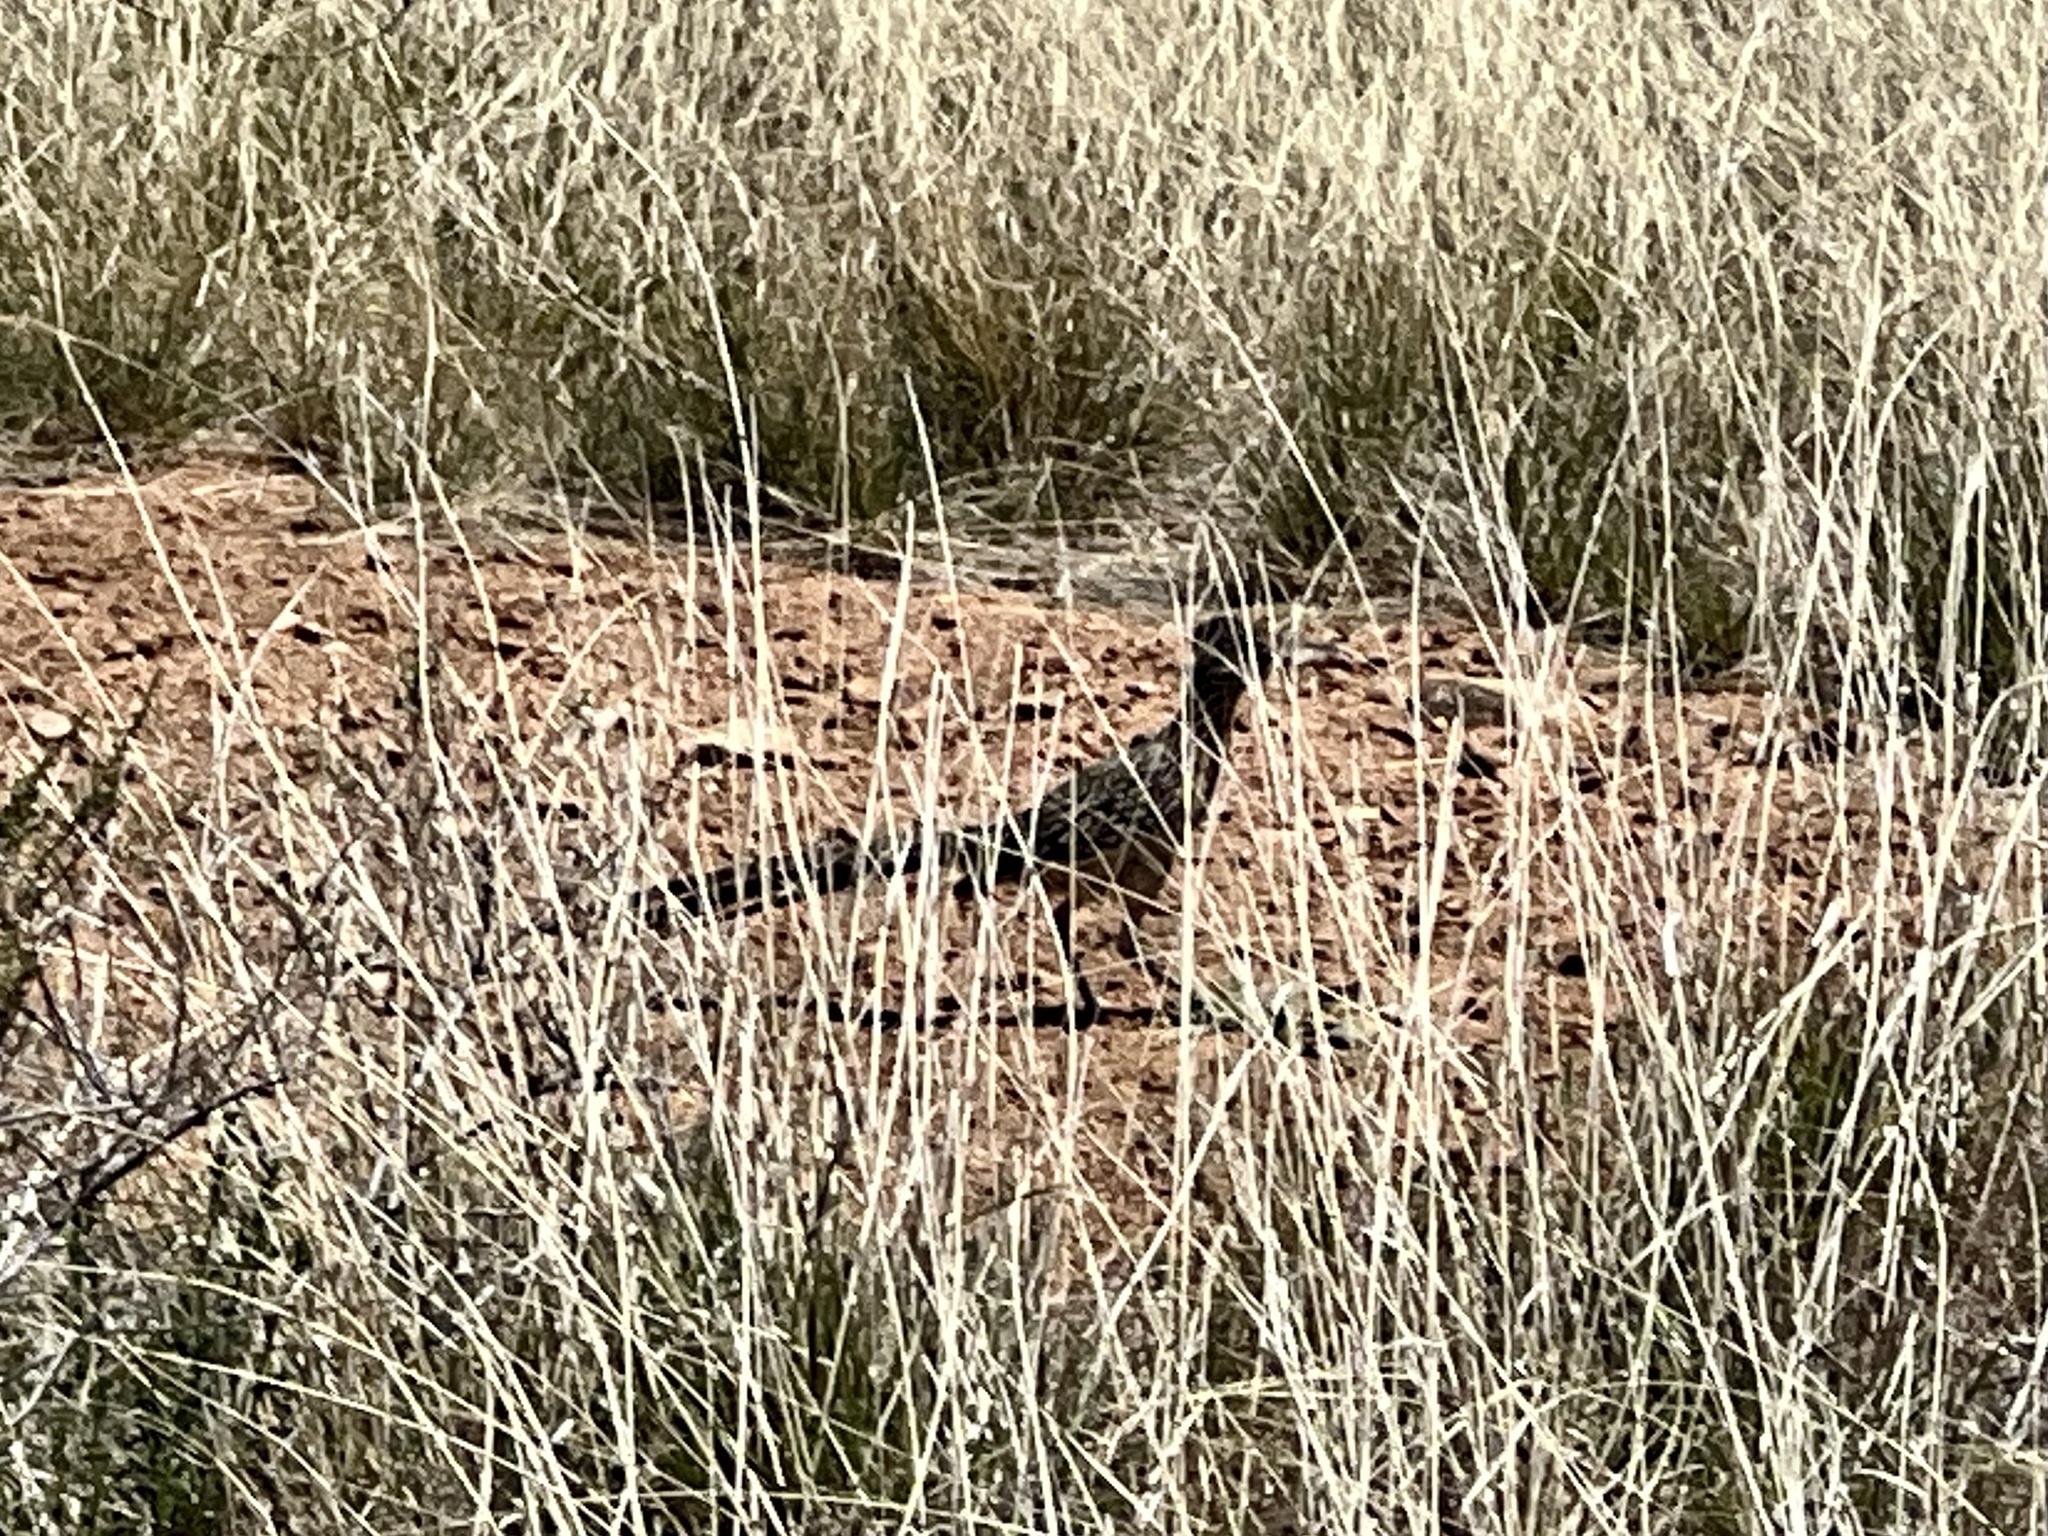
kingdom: Animalia
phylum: Chordata
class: Aves
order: Cuculiformes
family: Cuculidae
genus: Geococcyx
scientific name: Geococcyx californianus
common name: Greater roadrunner
